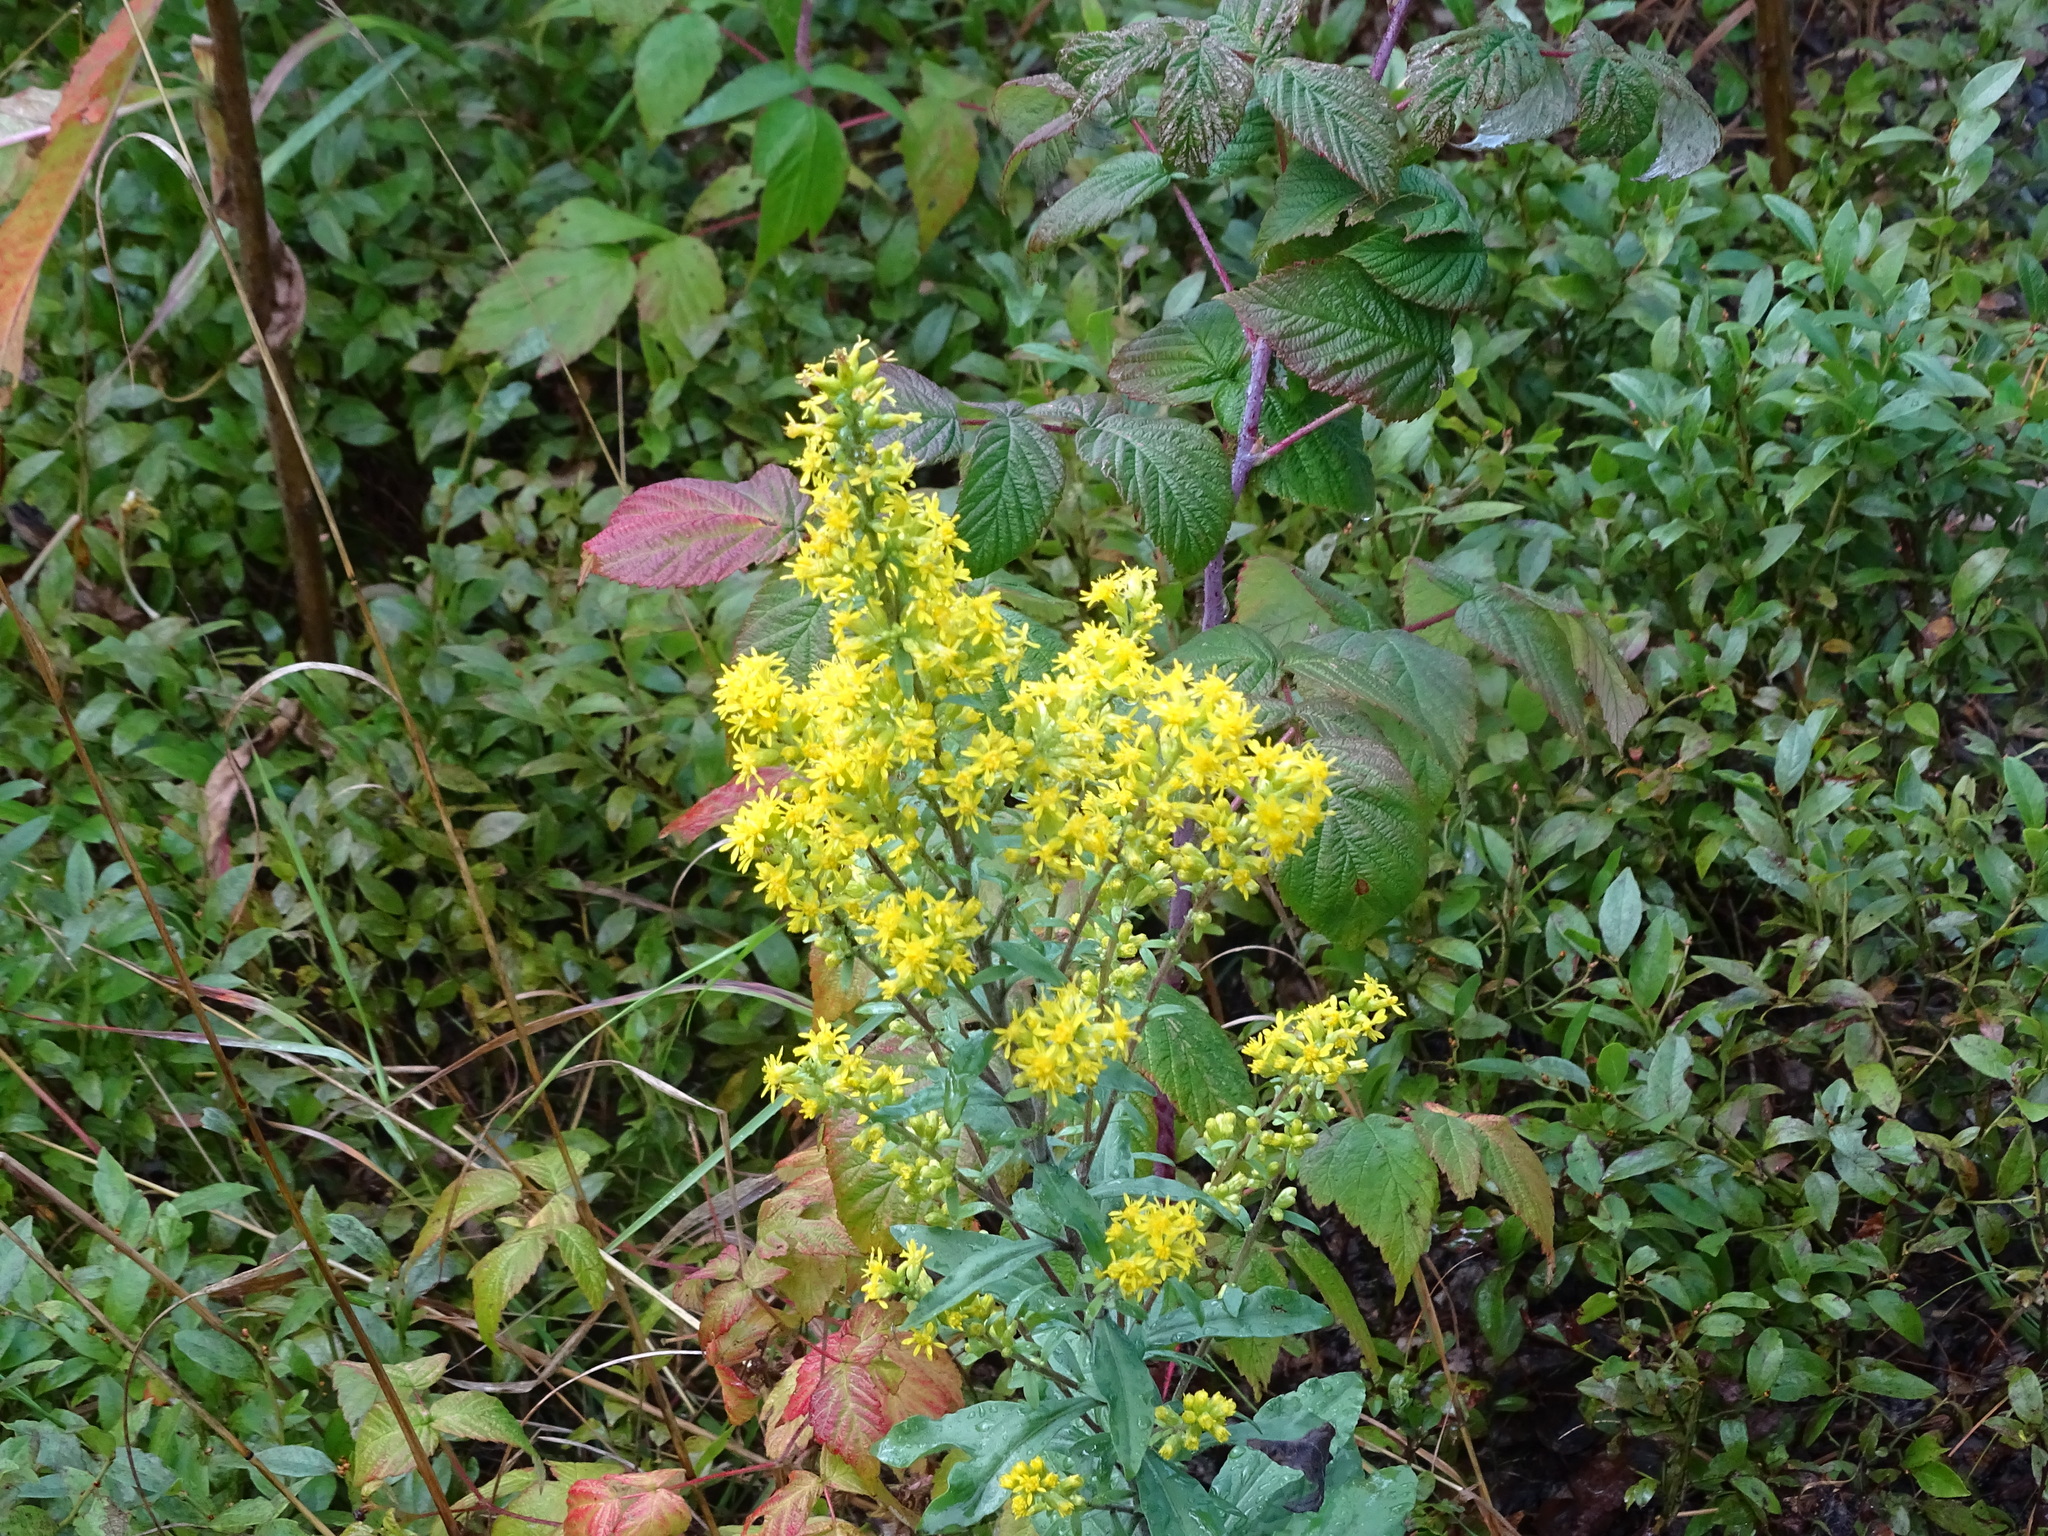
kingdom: Plantae
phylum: Tracheophyta
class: Magnoliopsida
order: Asterales
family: Asteraceae
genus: Solidago
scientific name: Solidago hispida
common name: Hairy goldenrod
